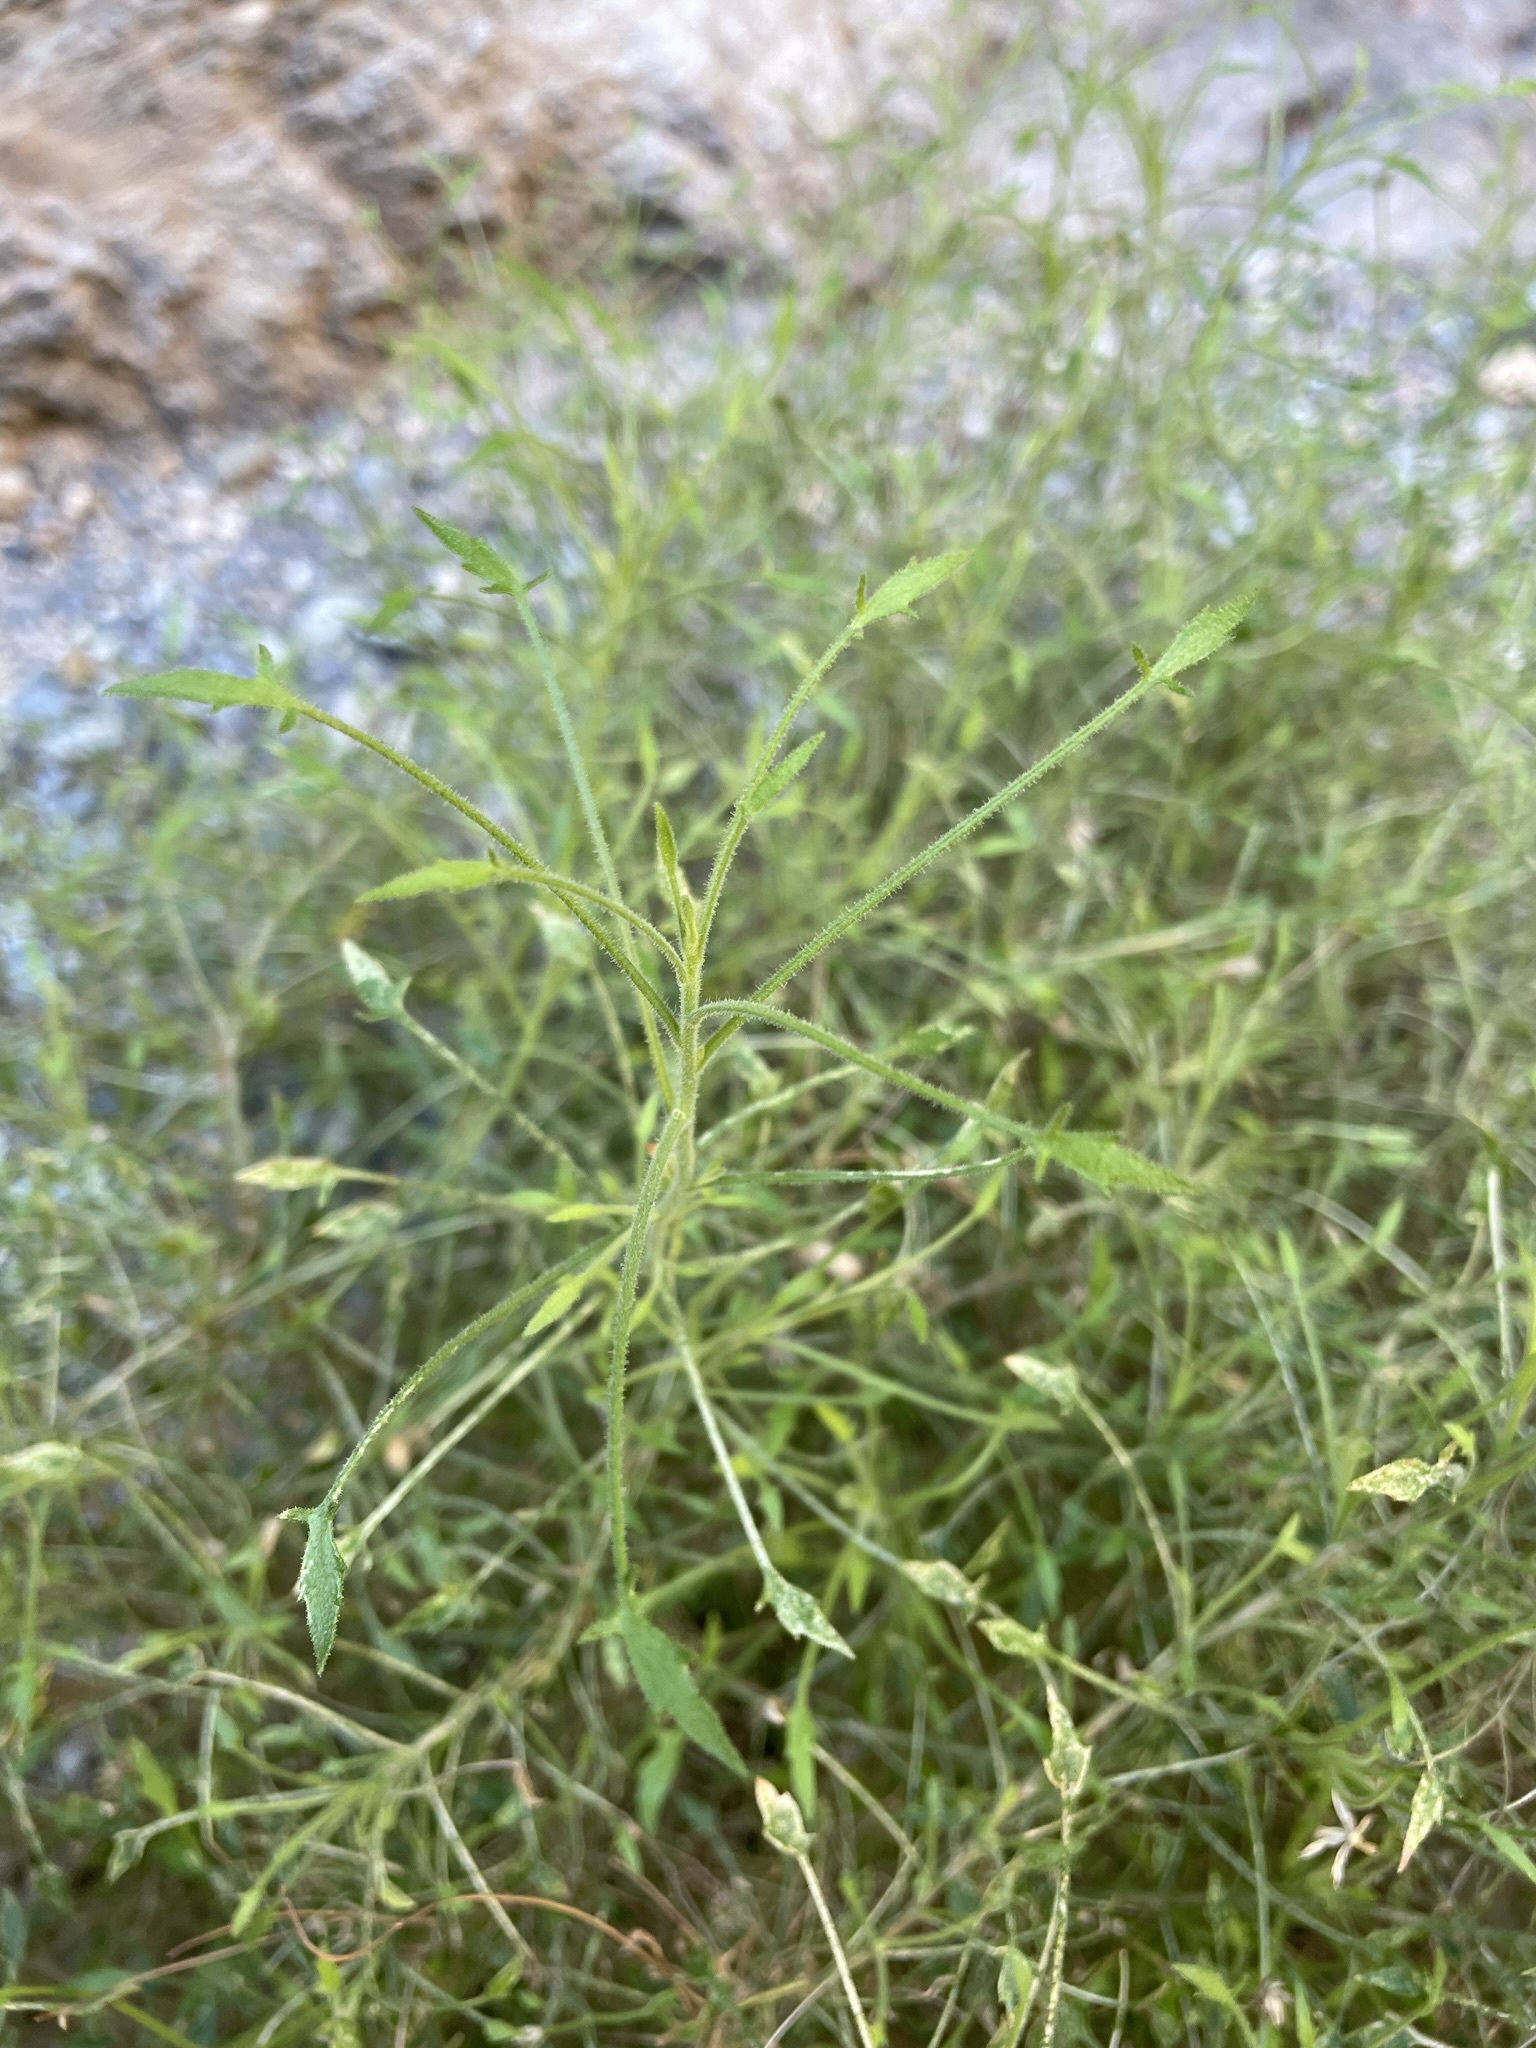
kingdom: Plantae
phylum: Tracheophyta
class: Magnoliopsida
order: Asterales
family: Asteraceae
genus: Pleurocoronis
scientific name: Pleurocoronis pluriseta
